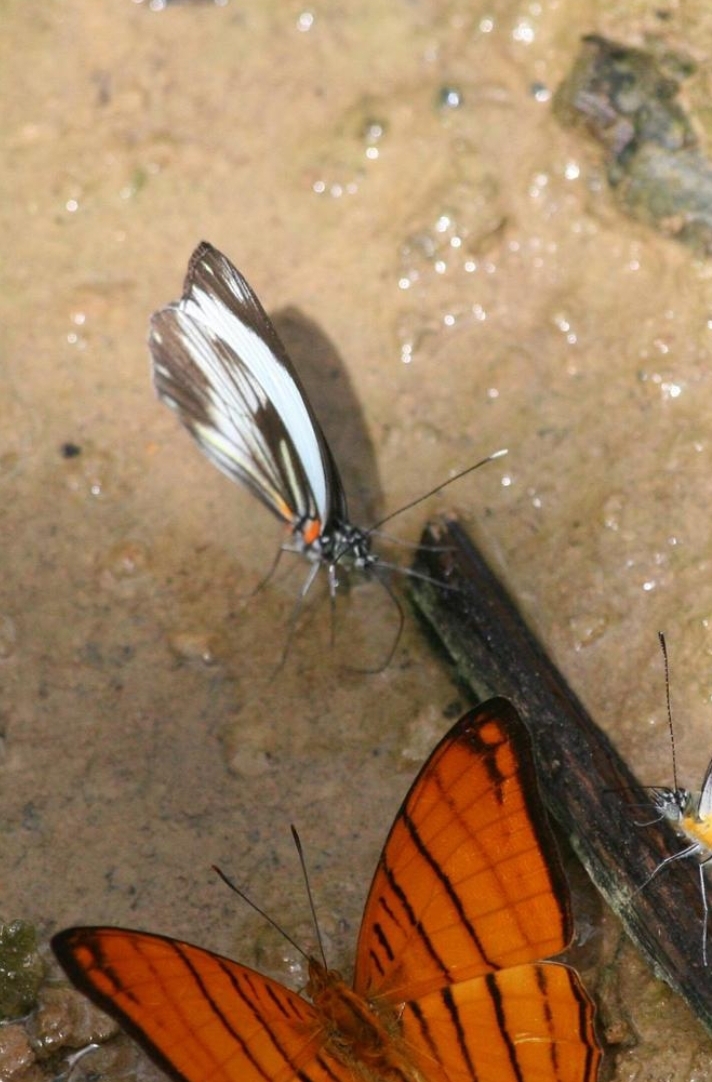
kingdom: Animalia
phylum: Arthropoda
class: Insecta
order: Lepidoptera
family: Pieridae
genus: Pieriballia
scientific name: Pieriballia viardi
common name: Painted white
